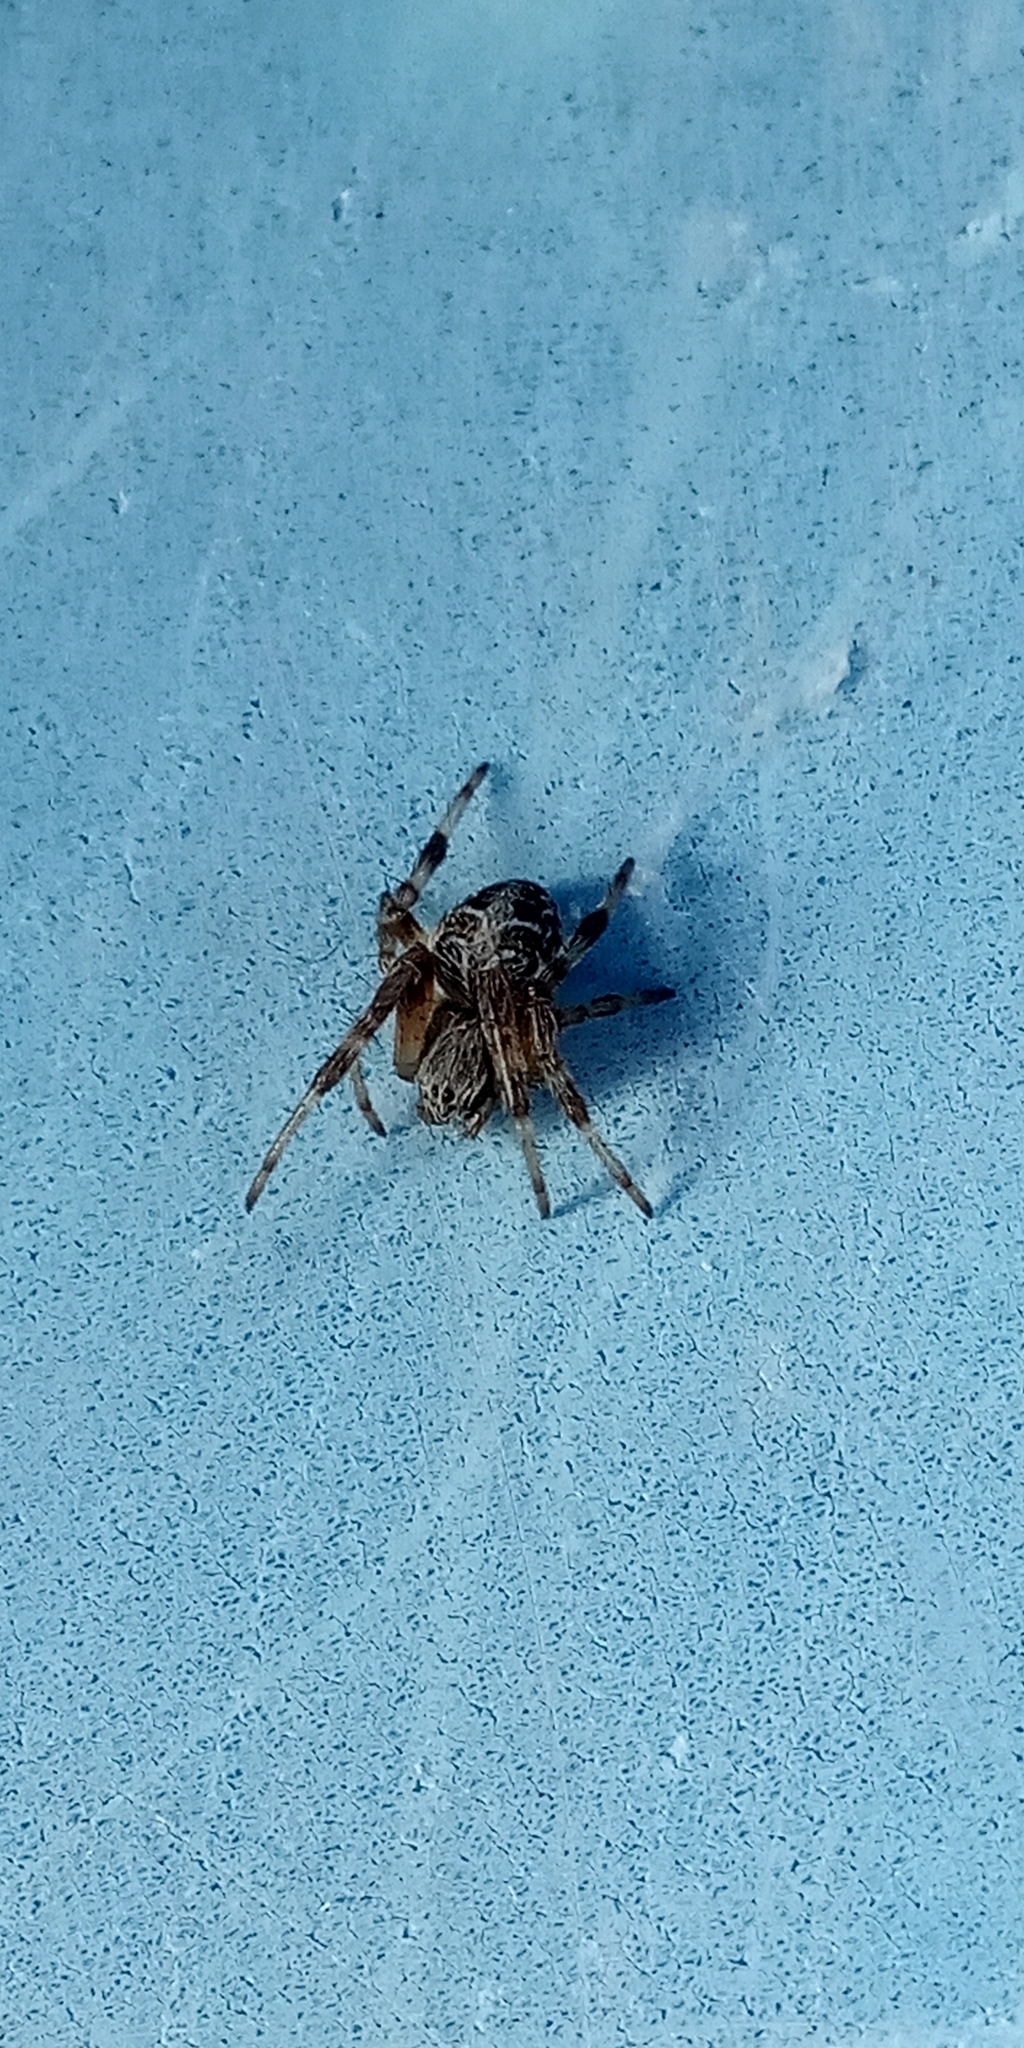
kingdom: Animalia
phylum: Arthropoda
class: Arachnida
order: Araneae
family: Araneidae
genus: Metepeira
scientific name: Metepeira
